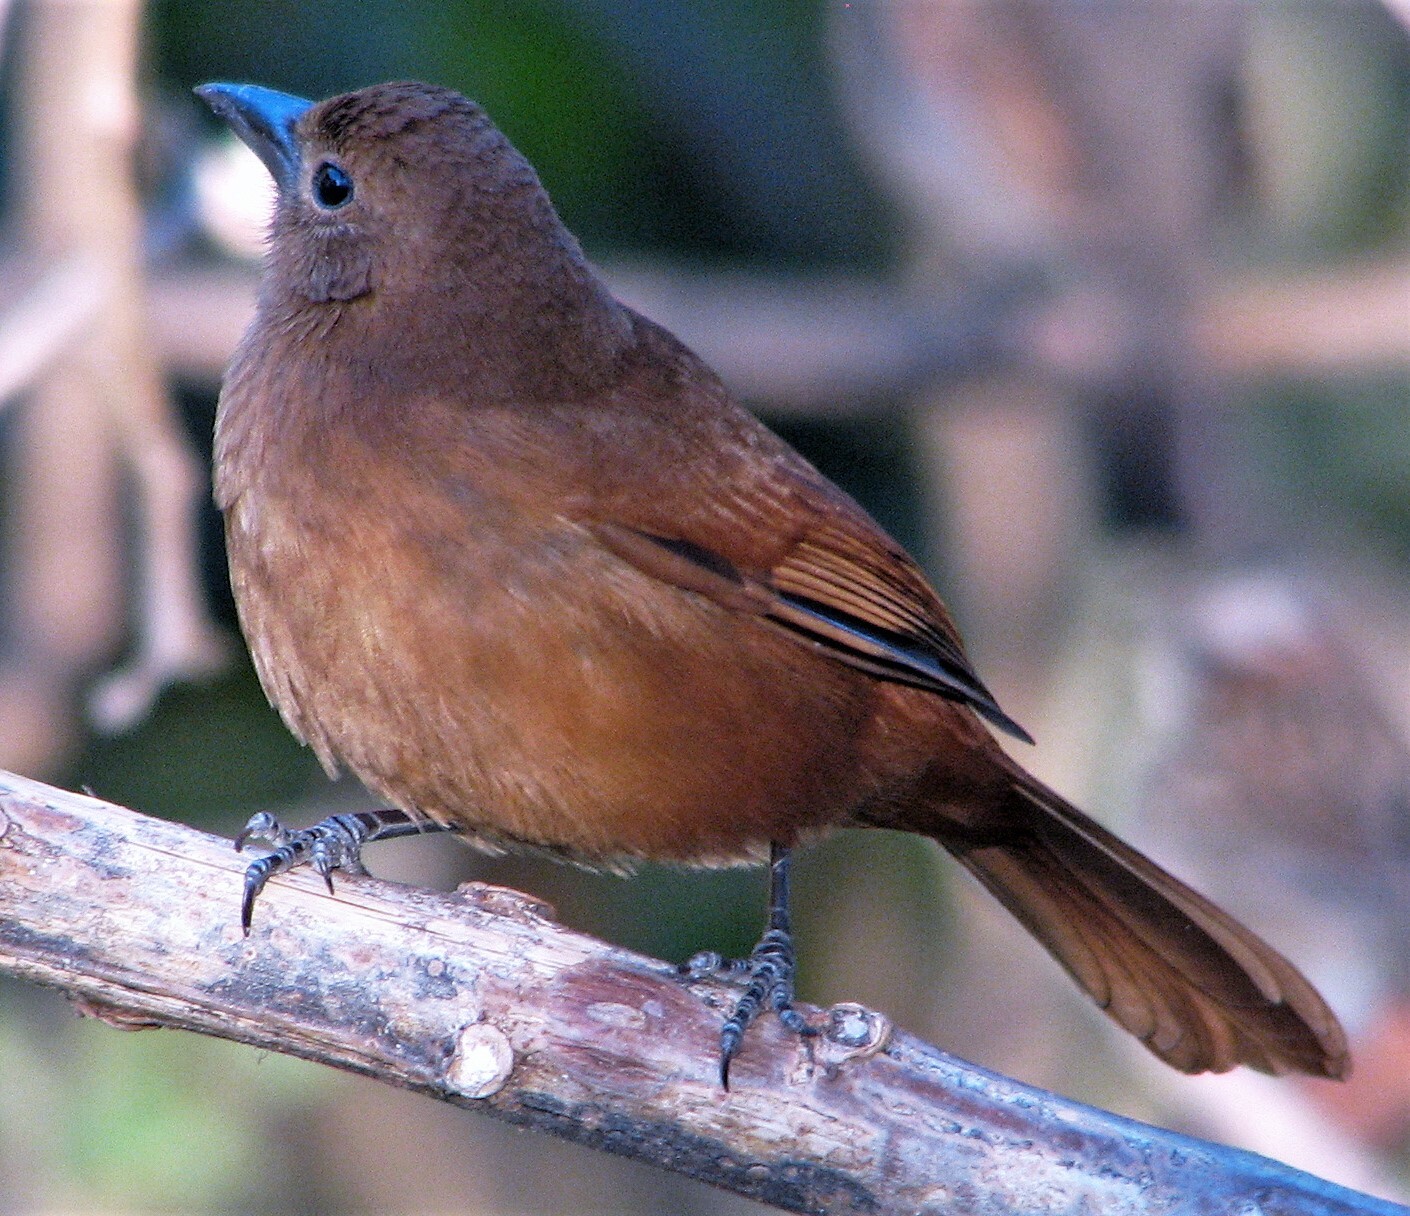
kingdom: Animalia
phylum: Chordata
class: Aves
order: Passeriformes
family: Thraupidae
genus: Tachyphonus
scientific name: Tachyphonus rufus
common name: White-lined tanager
